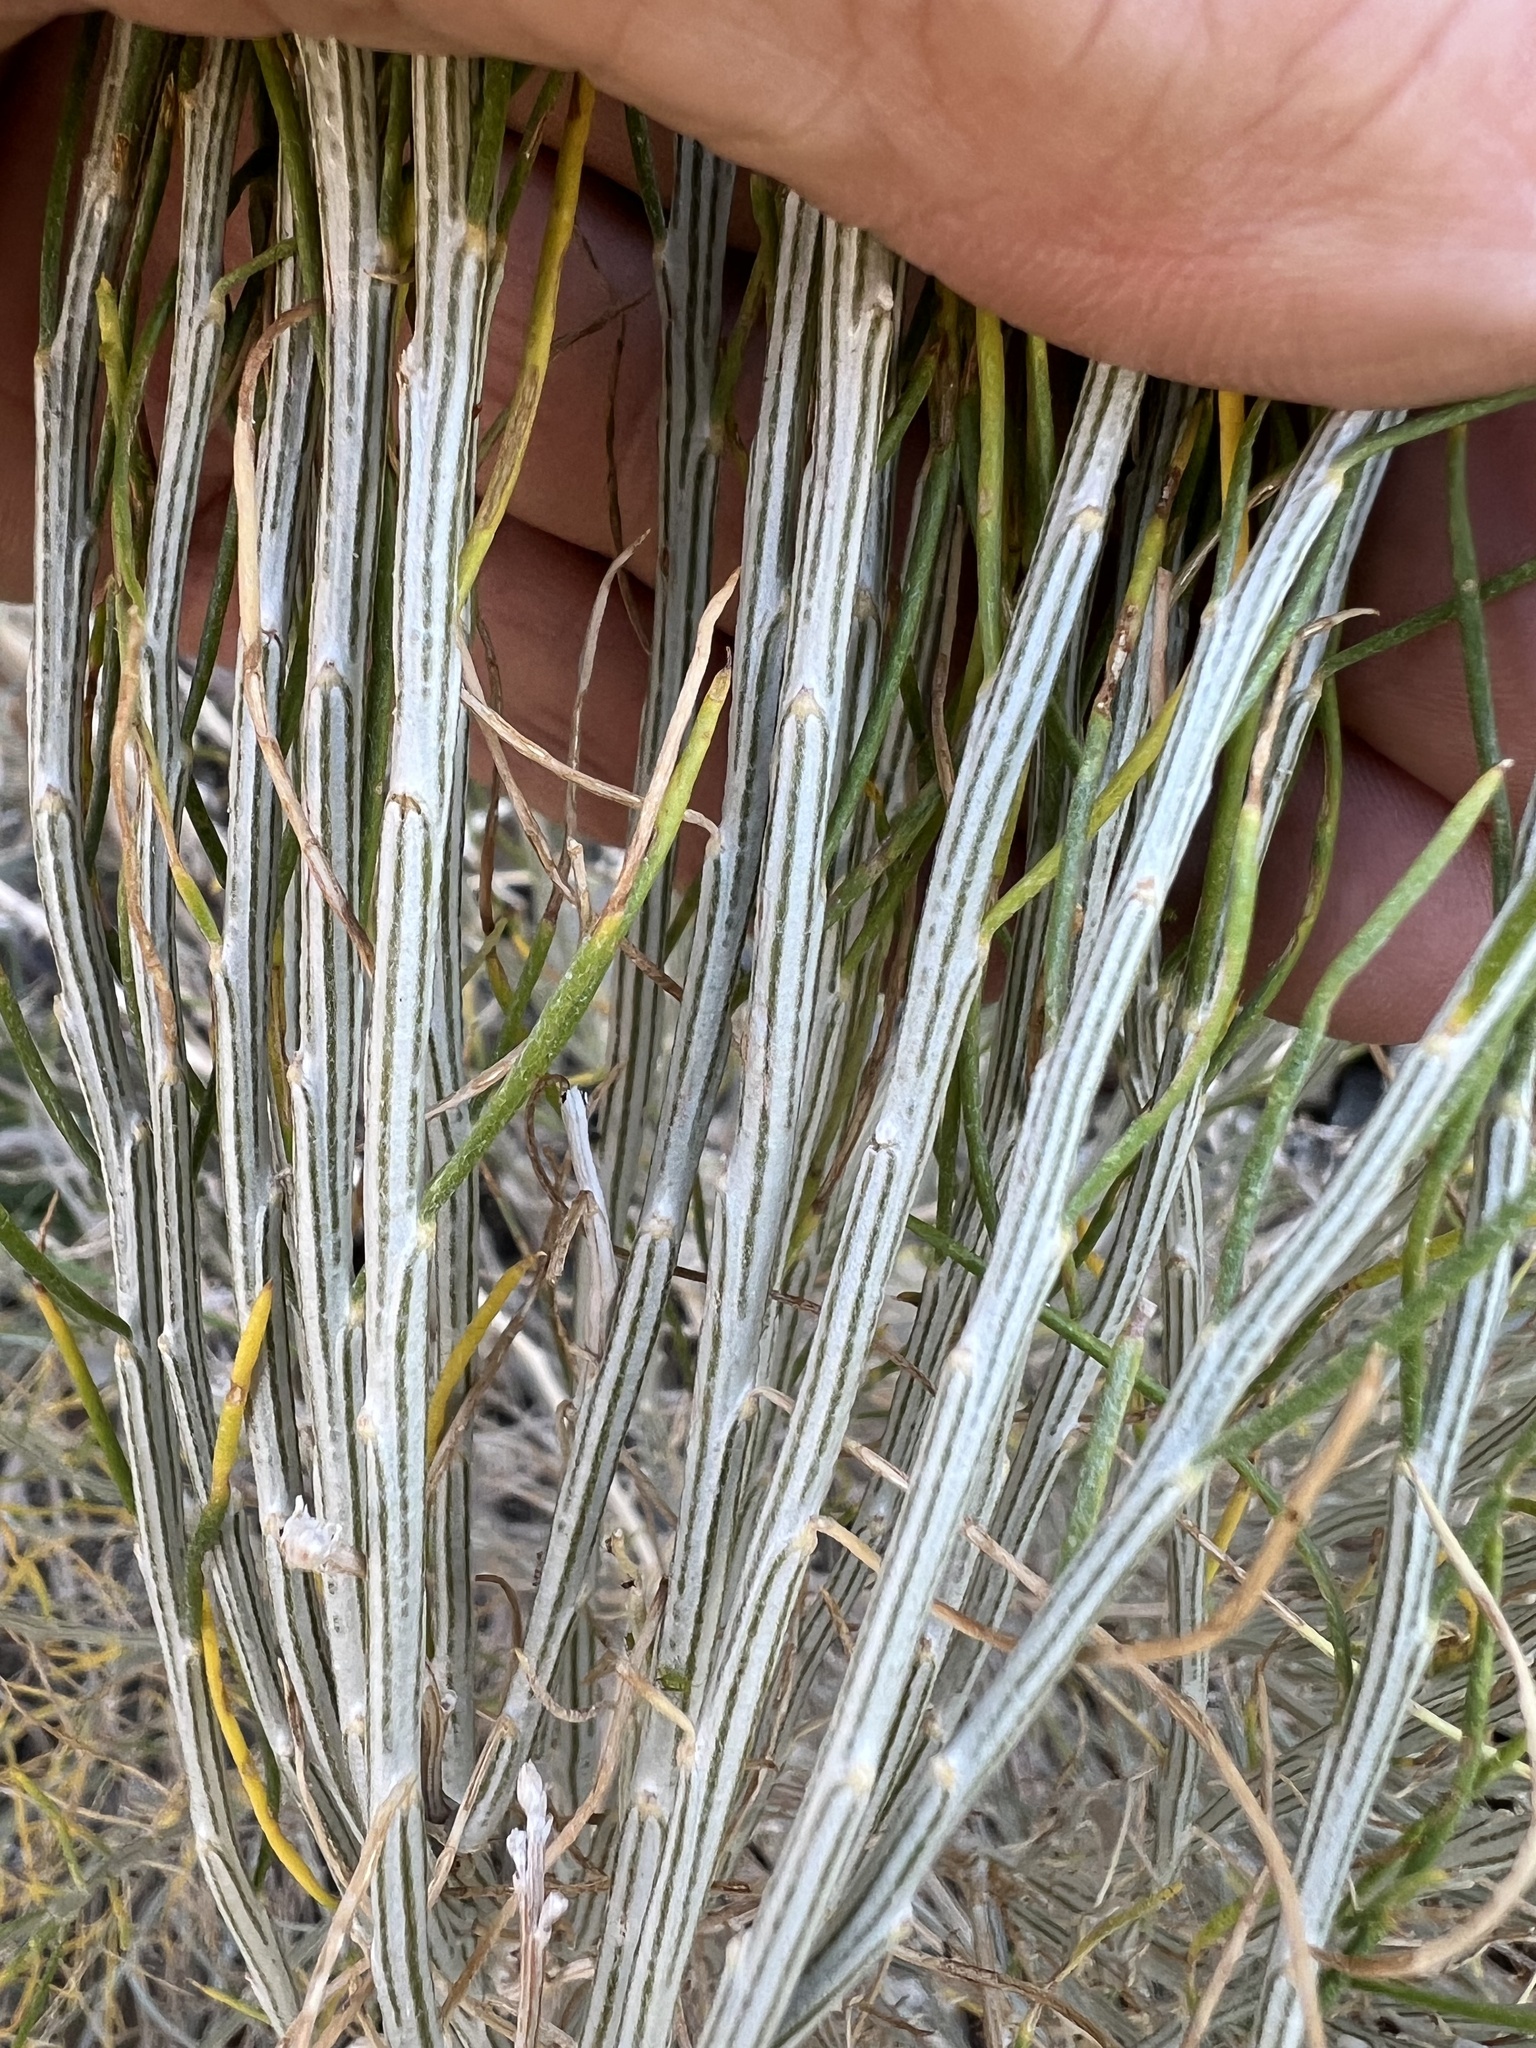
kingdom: Plantae
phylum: Tracheophyta
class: Magnoliopsida
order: Asterales
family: Asteraceae
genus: Lepidospartum
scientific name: Lepidospartum latisquamum
